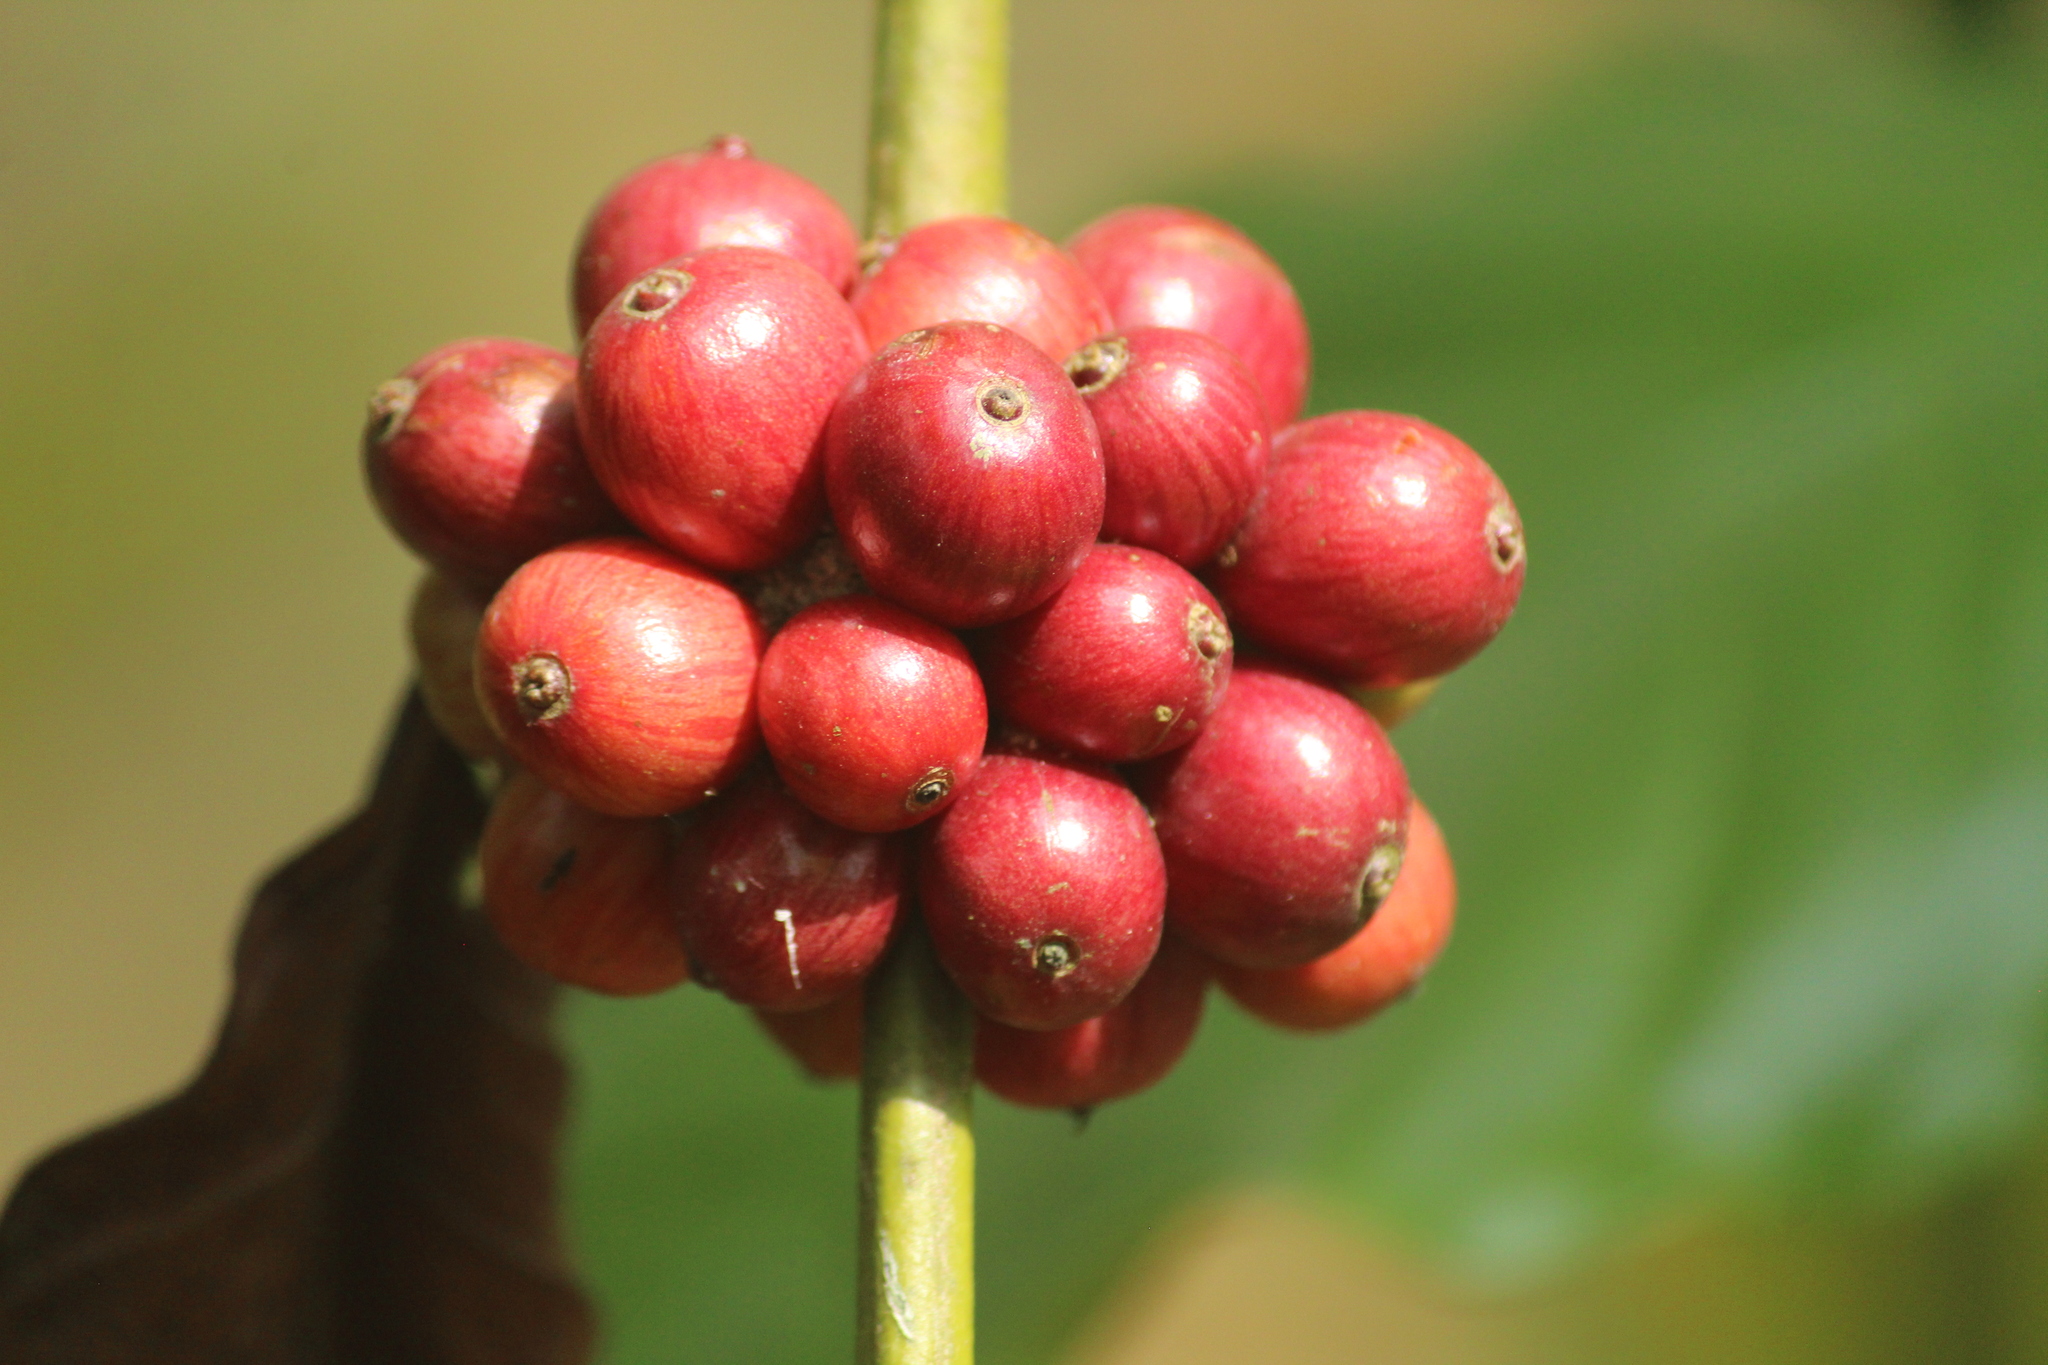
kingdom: Plantae
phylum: Tracheophyta
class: Magnoliopsida
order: Gentianales
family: Rubiaceae
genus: Coffea
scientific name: Coffea arabica
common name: Coffee
